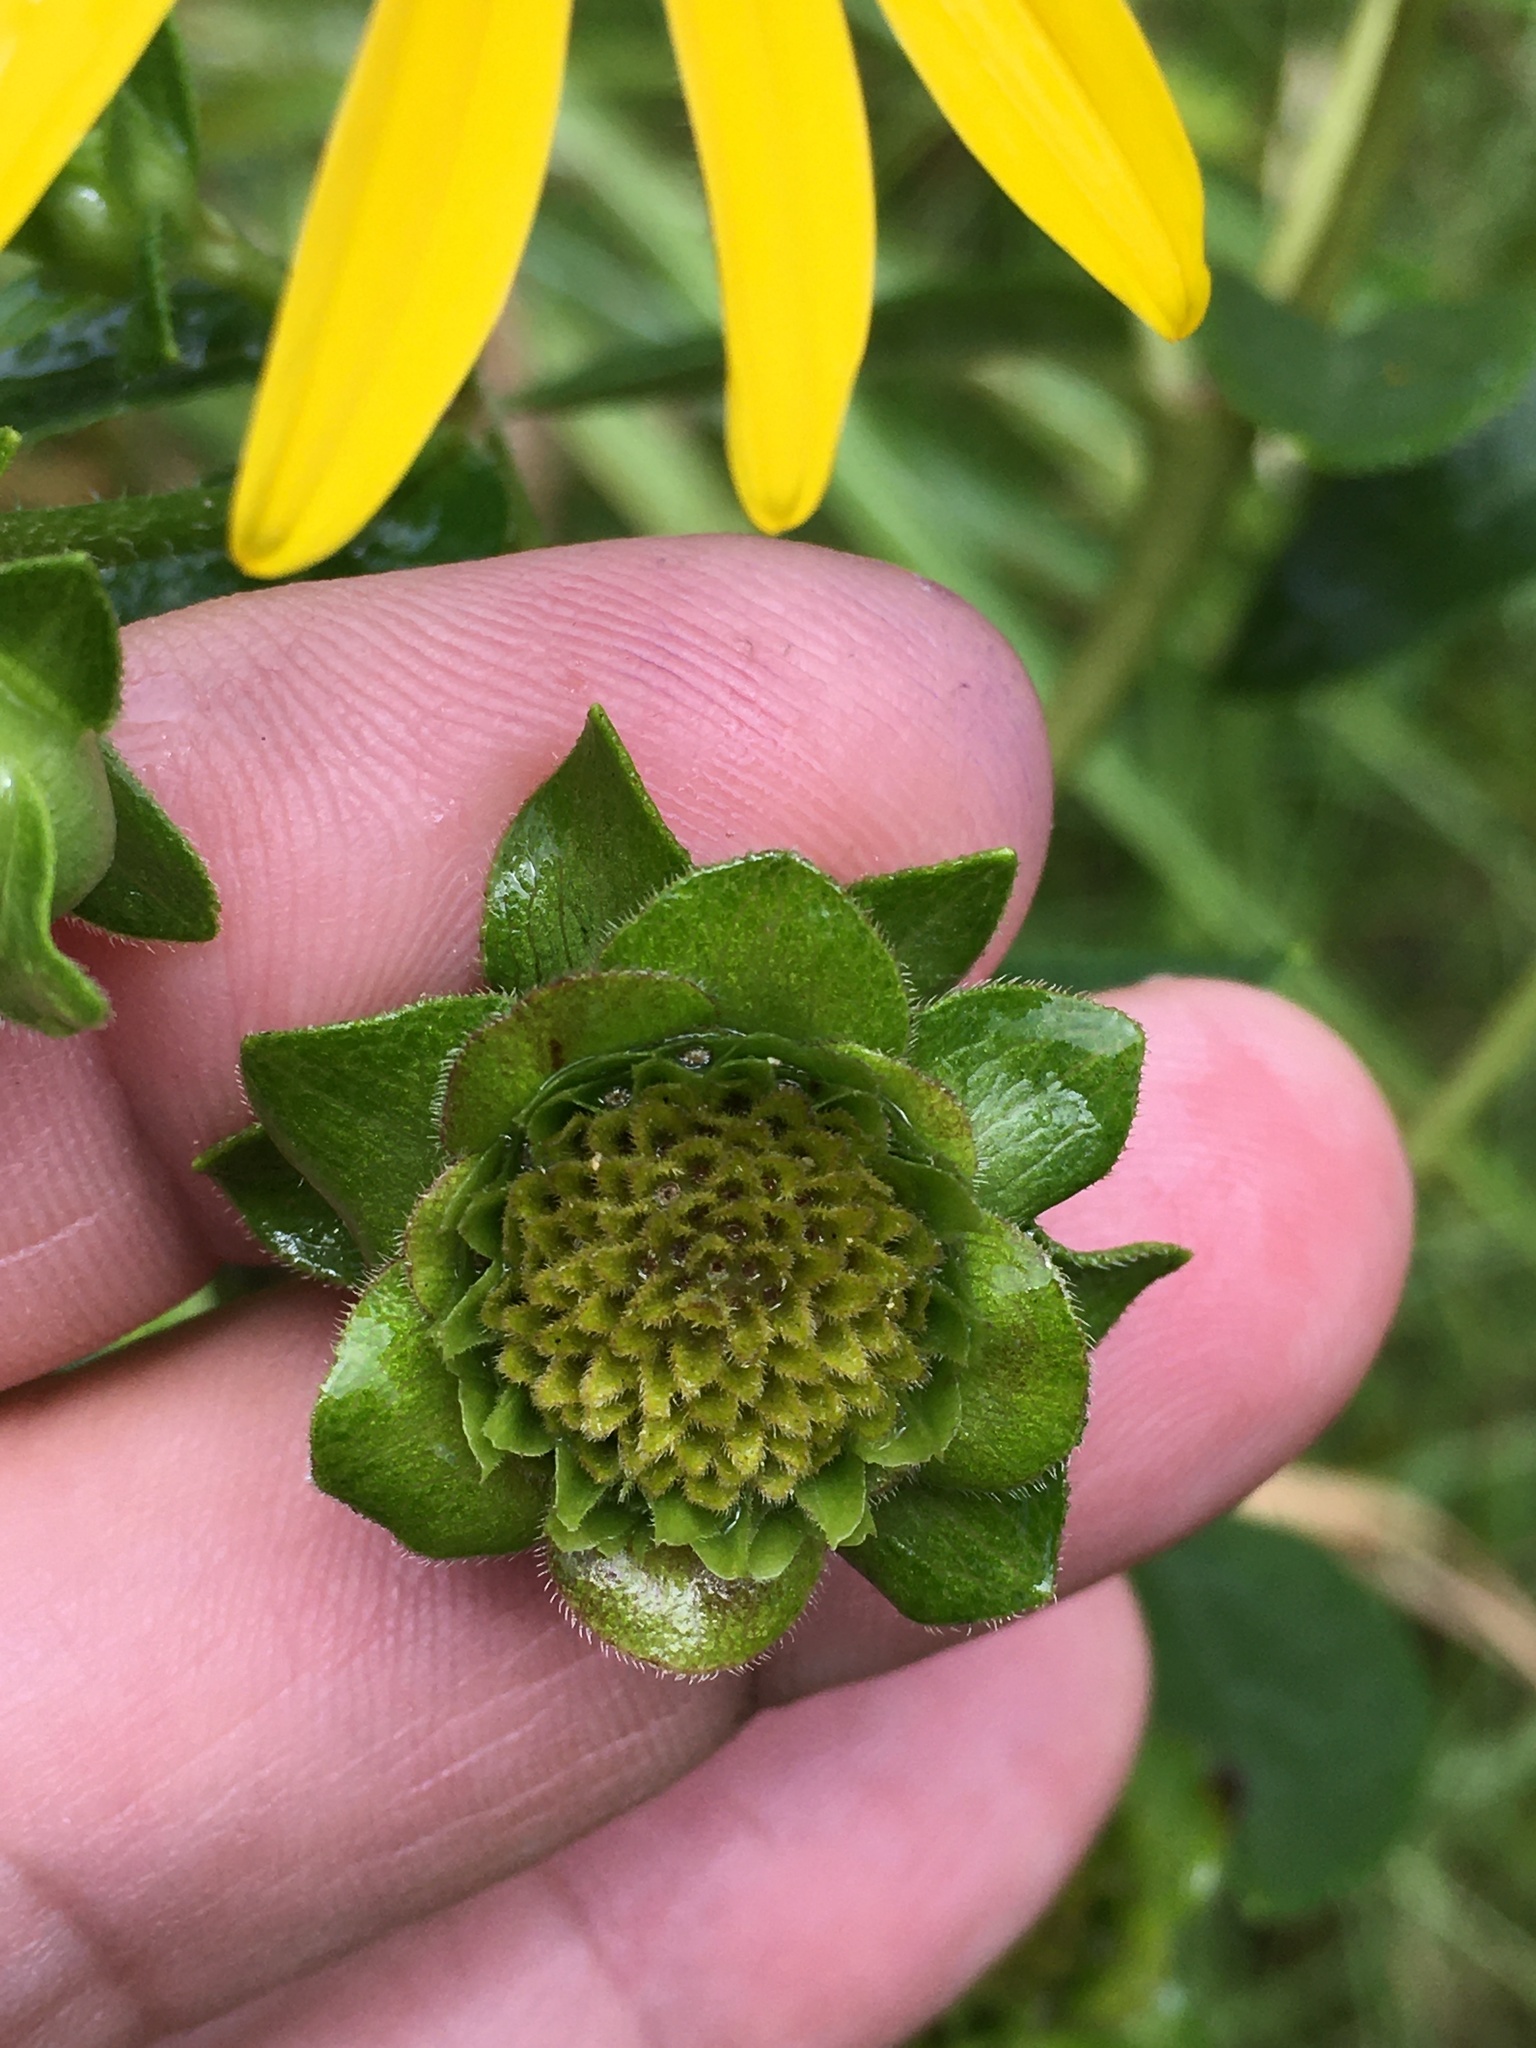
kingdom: Plantae
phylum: Tracheophyta
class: Magnoliopsida
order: Asterales
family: Asteraceae
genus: Silphium
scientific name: Silphium asteriscus
